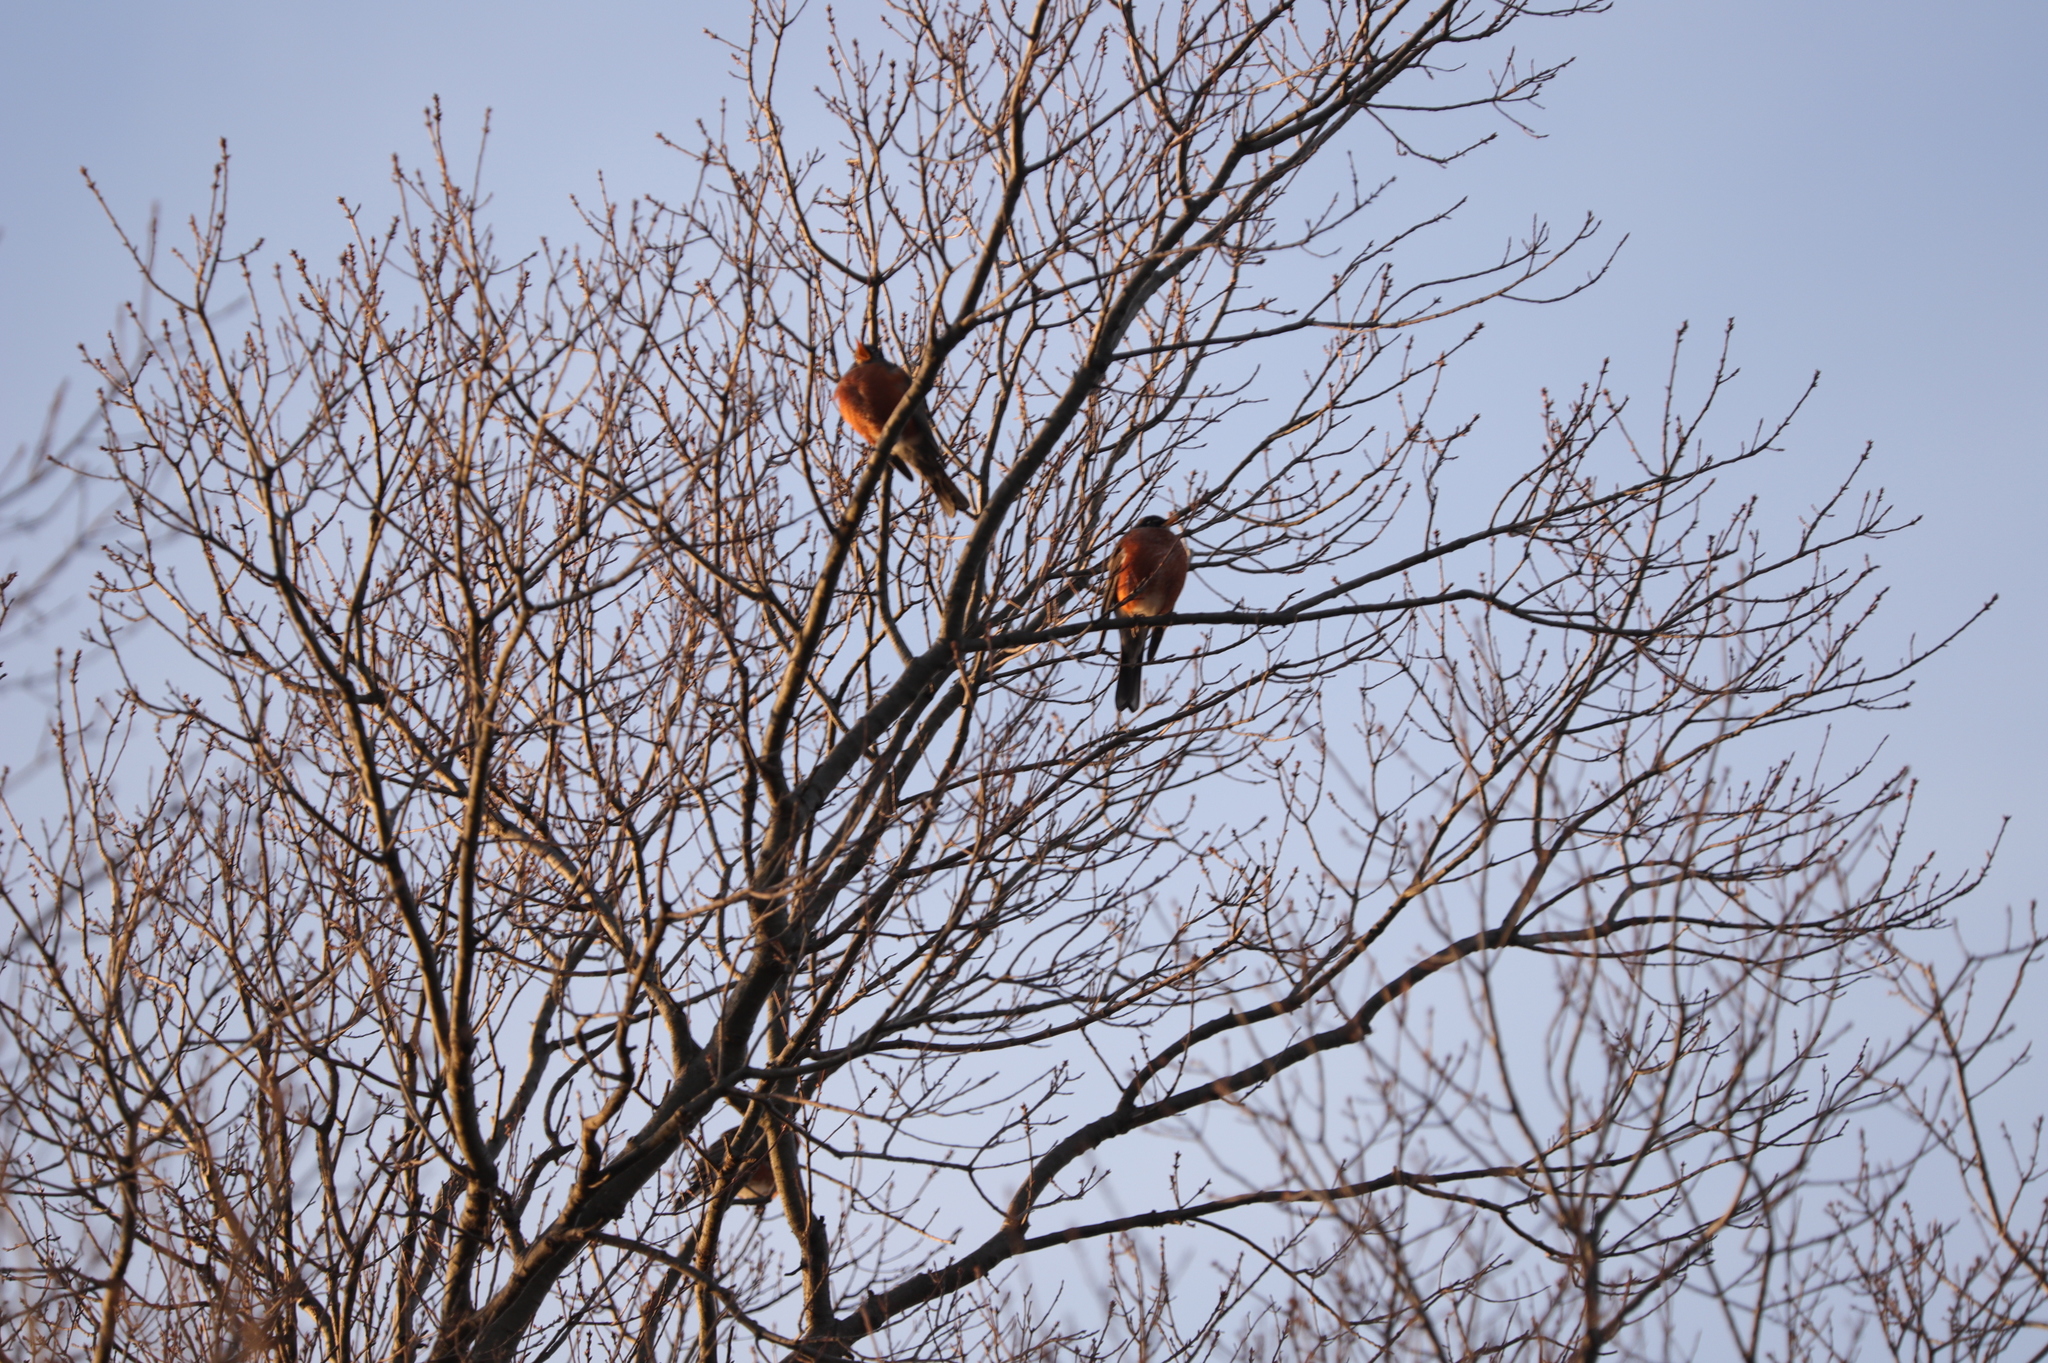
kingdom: Animalia
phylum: Chordata
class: Aves
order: Passeriformes
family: Turdidae
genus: Turdus
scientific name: Turdus migratorius
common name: American robin
